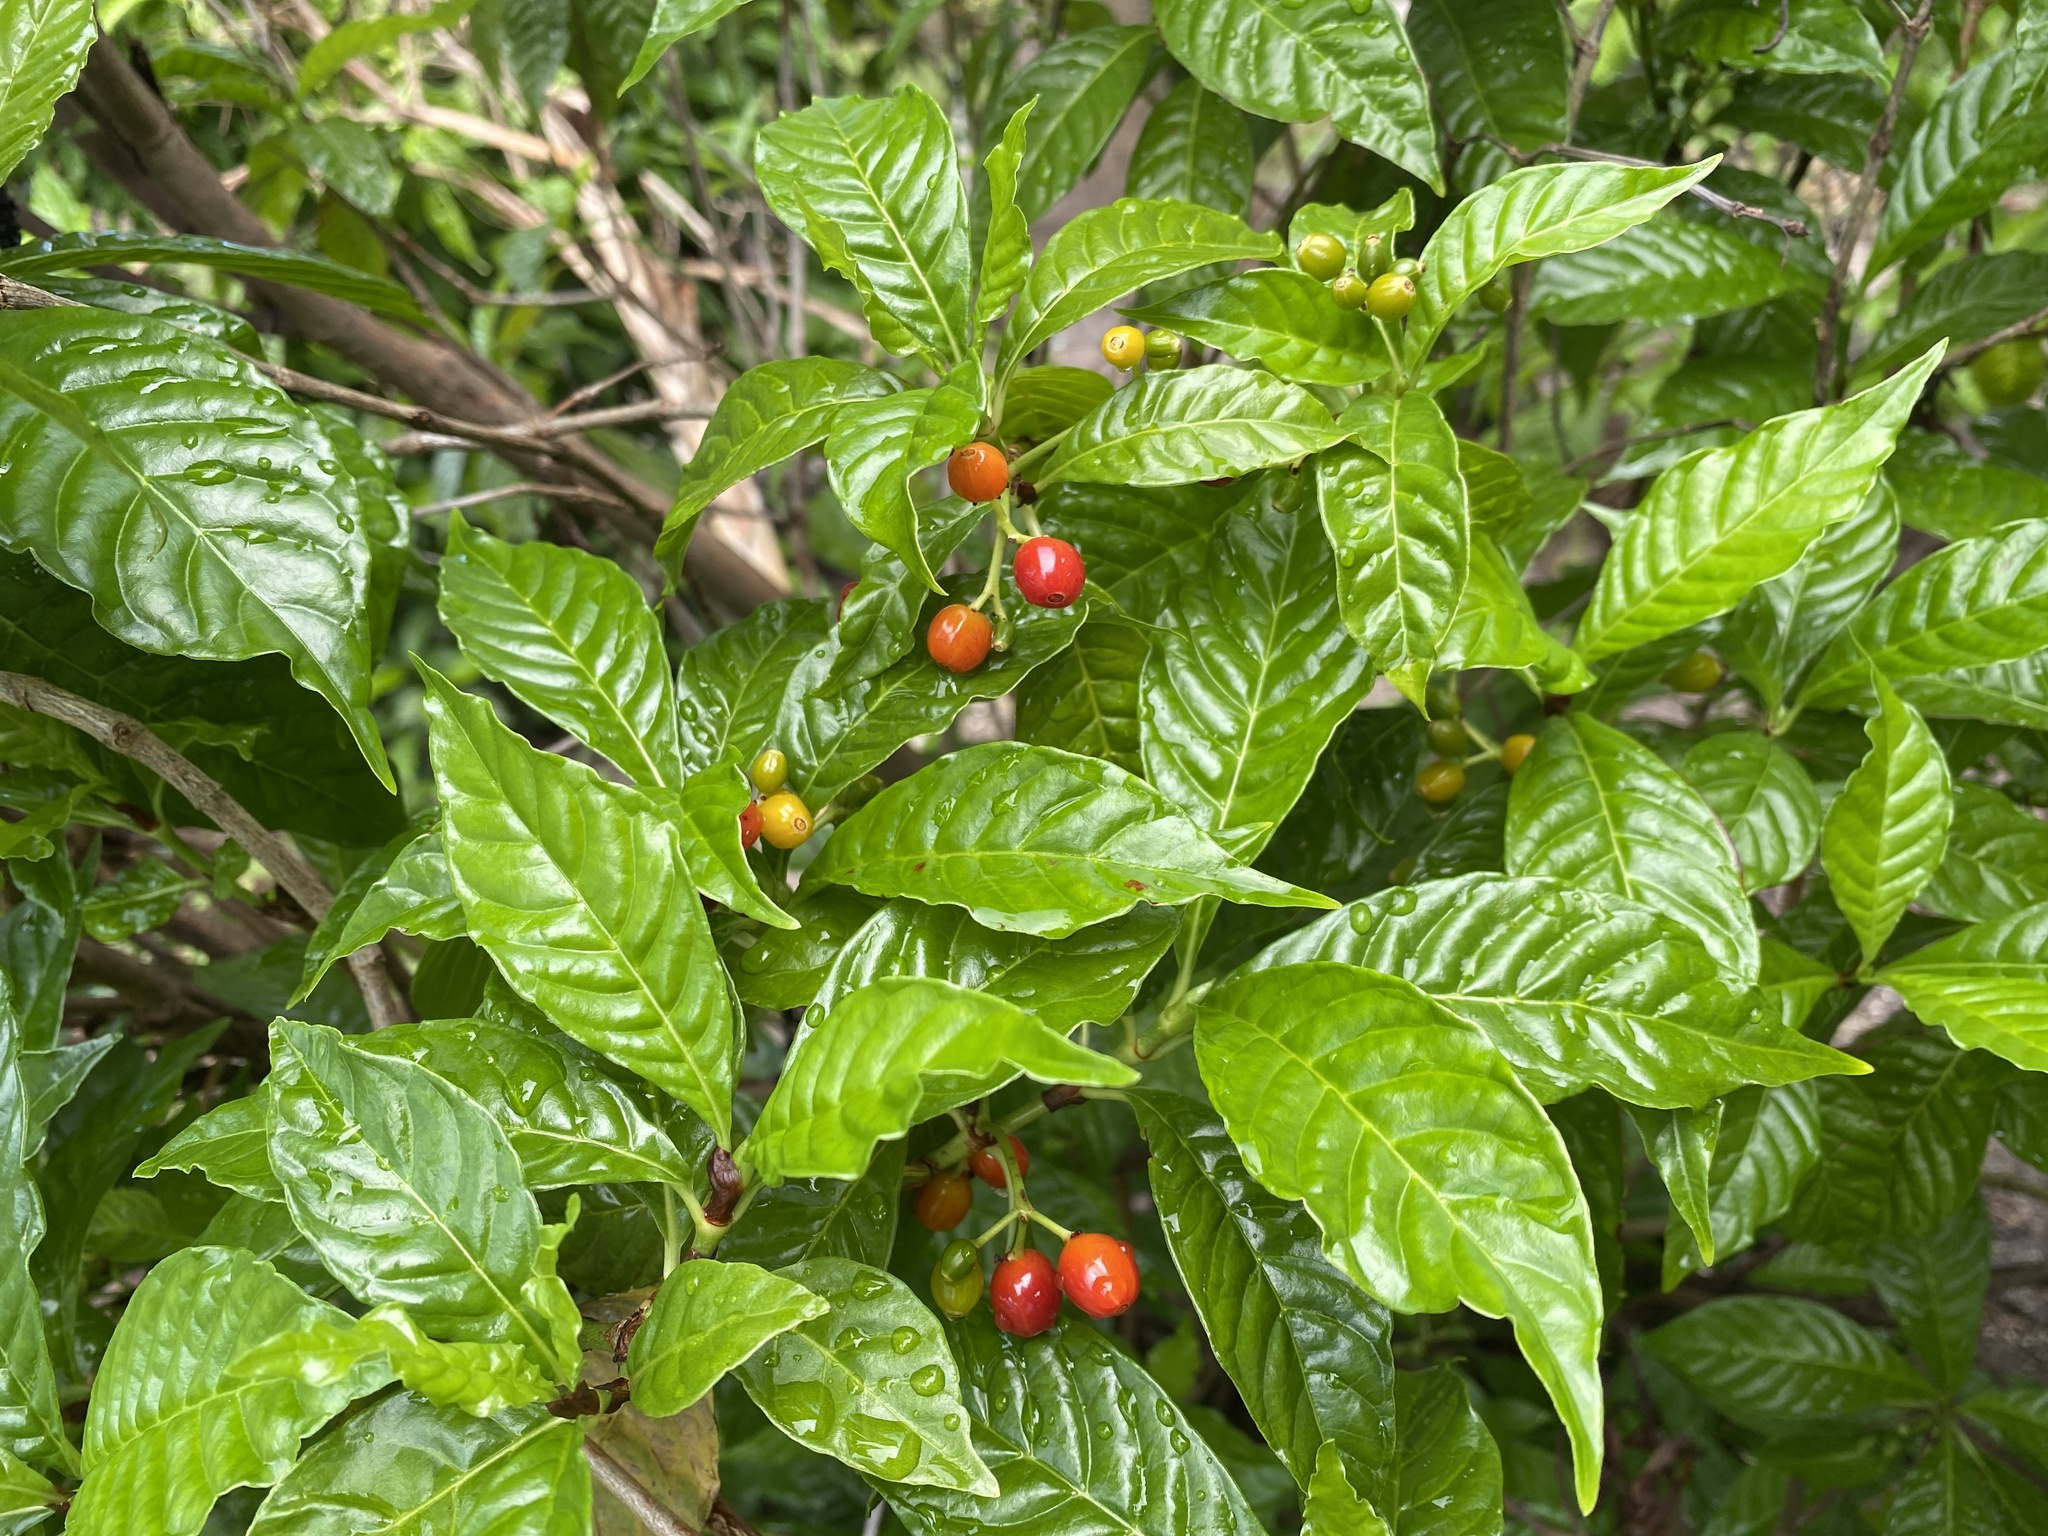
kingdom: Plantae
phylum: Tracheophyta
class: Magnoliopsida
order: Gentianales
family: Rubiaceae
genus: Psychotria
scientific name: Psychotria nervosa
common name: Bastard cankerberry
